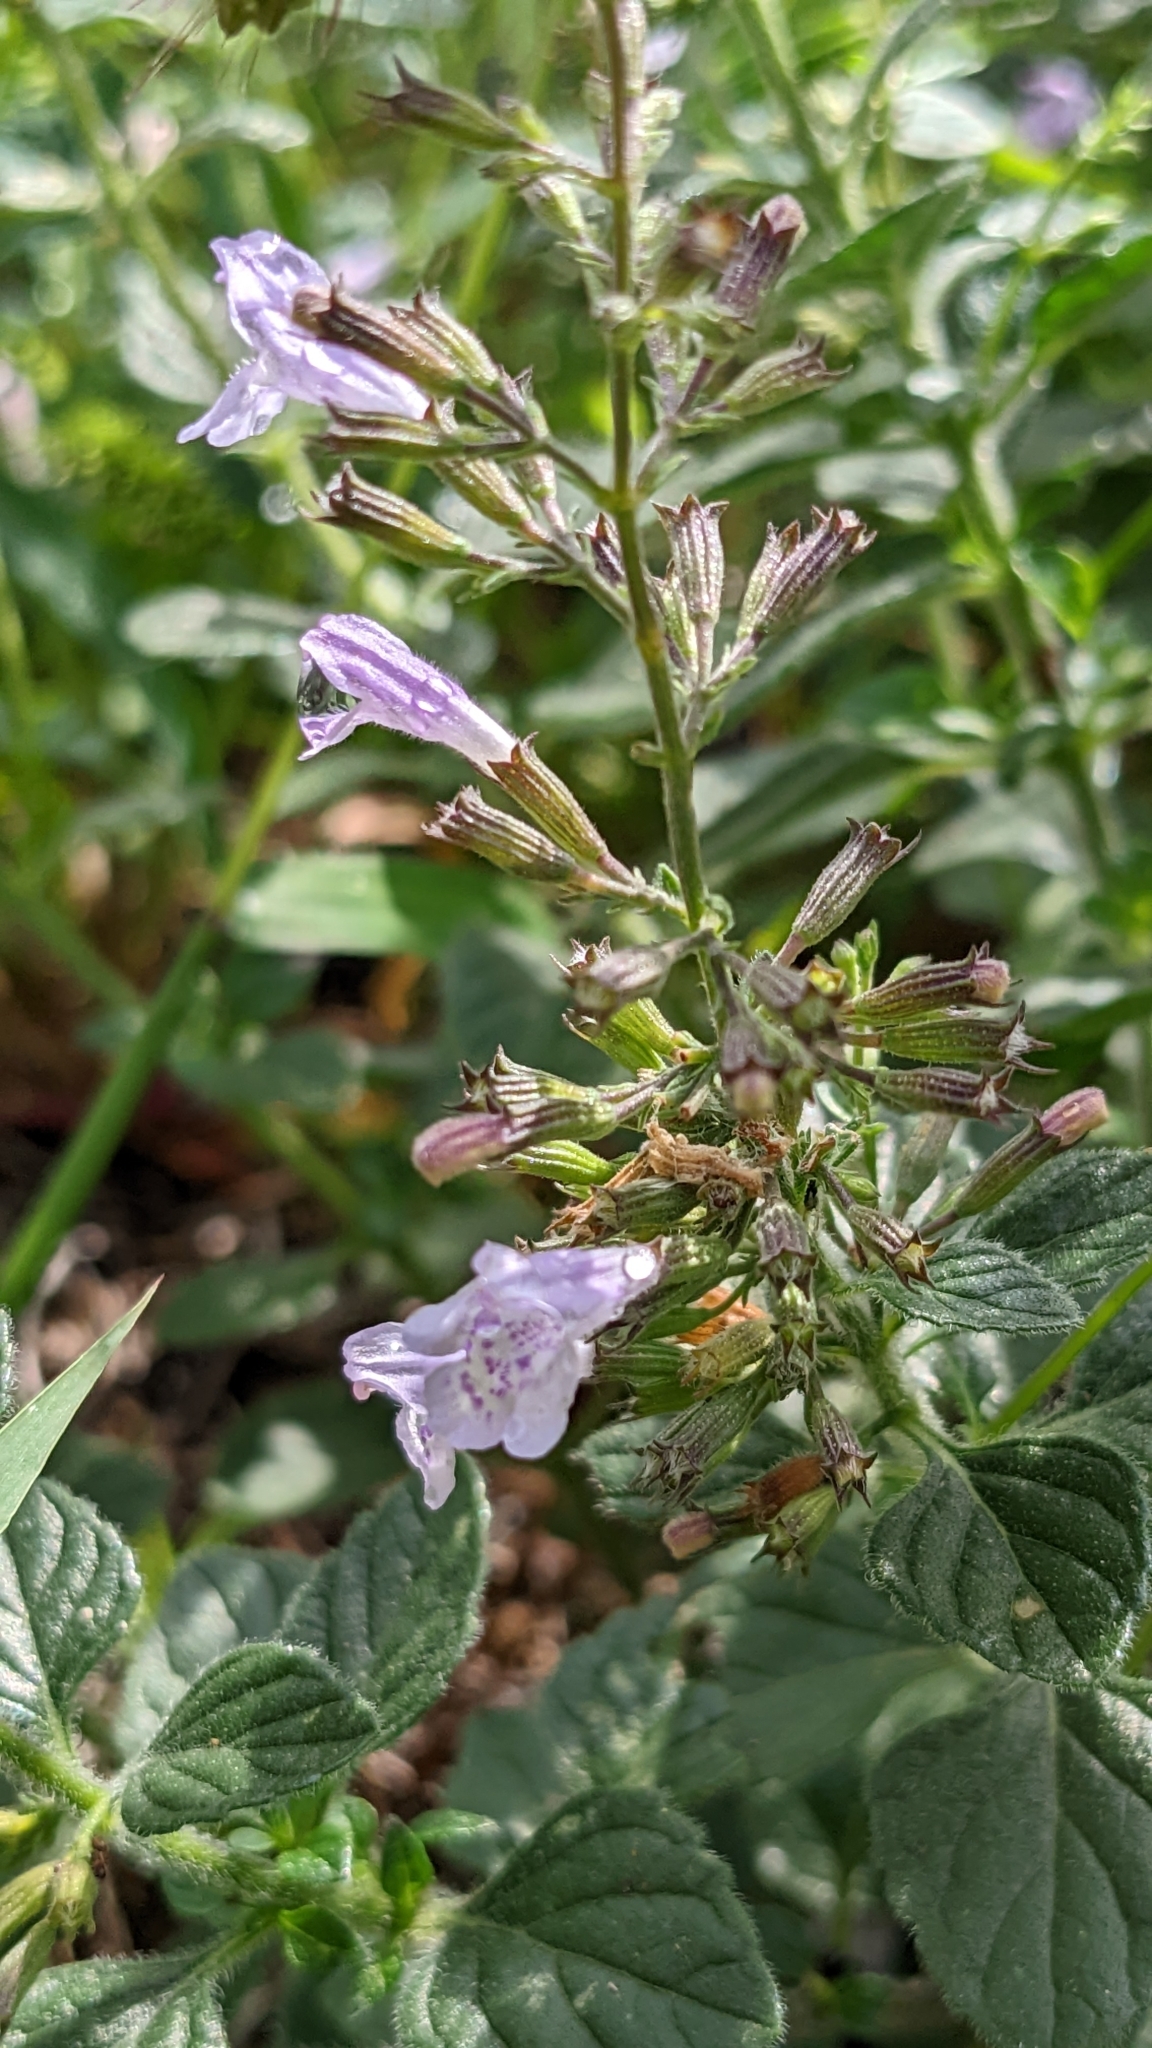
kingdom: Plantae
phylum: Tracheophyta
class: Magnoliopsida
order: Lamiales
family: Lamiaceae
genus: Clinopodium
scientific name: Clinopodium nepeta
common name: Lesser calamint
